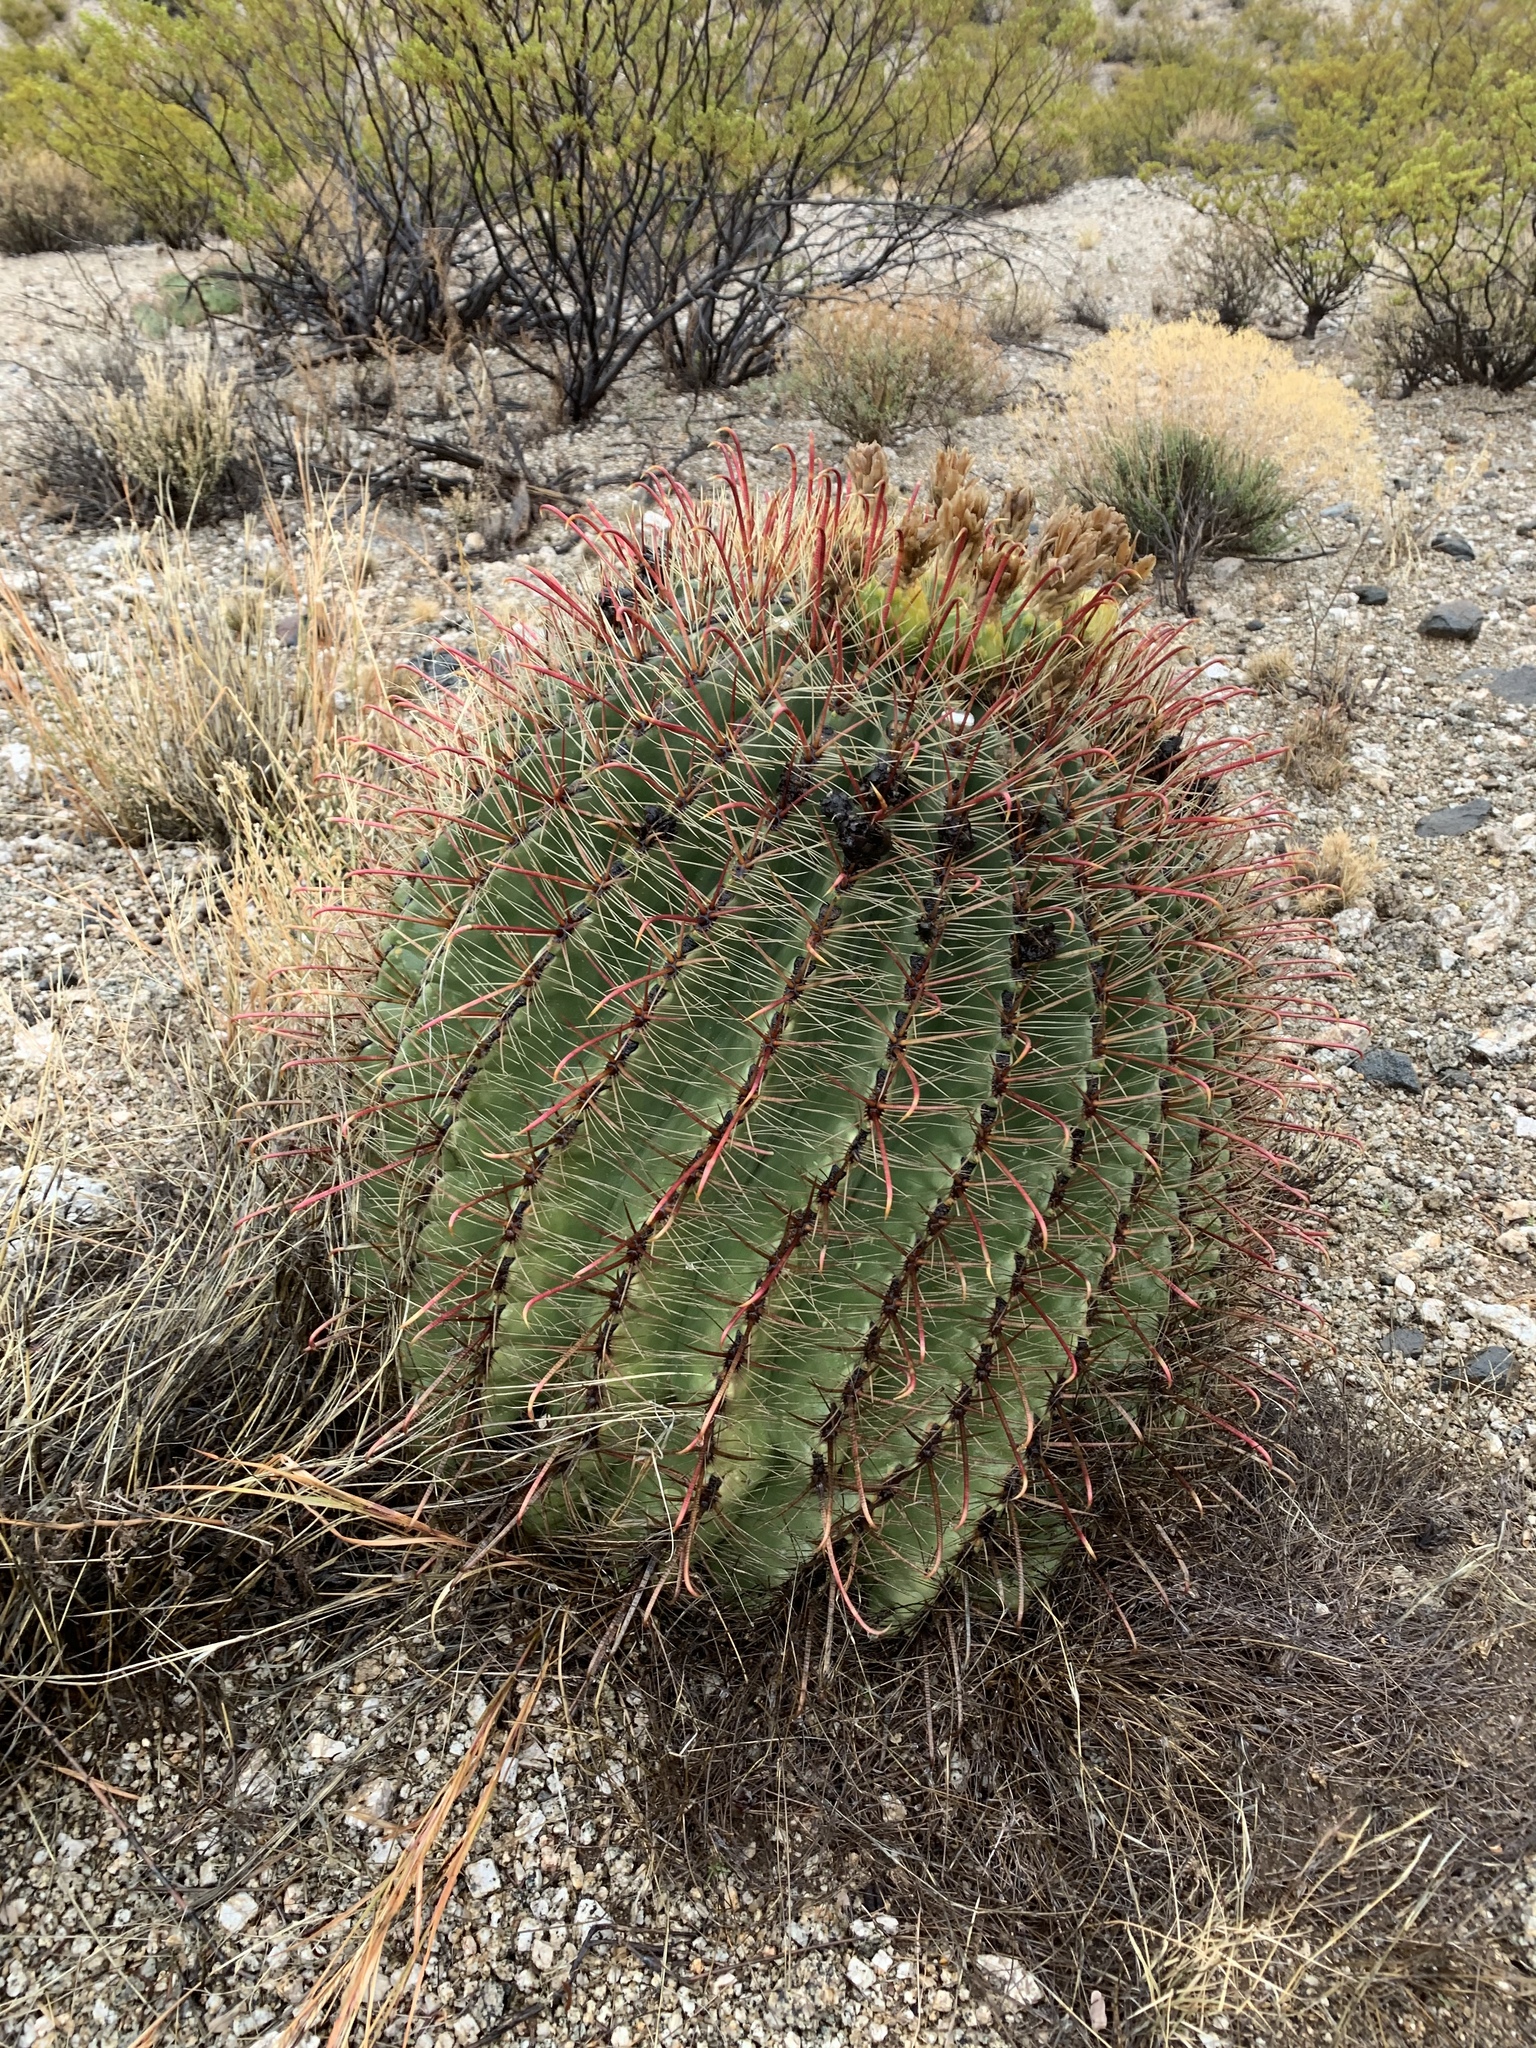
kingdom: Plantae
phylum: Tracheophyta
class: Magnoliopsida
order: Caryophyllales
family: Cactaceae
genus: Ferocactus
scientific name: Ferocactus wislizeni
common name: Candy barrel cactus
